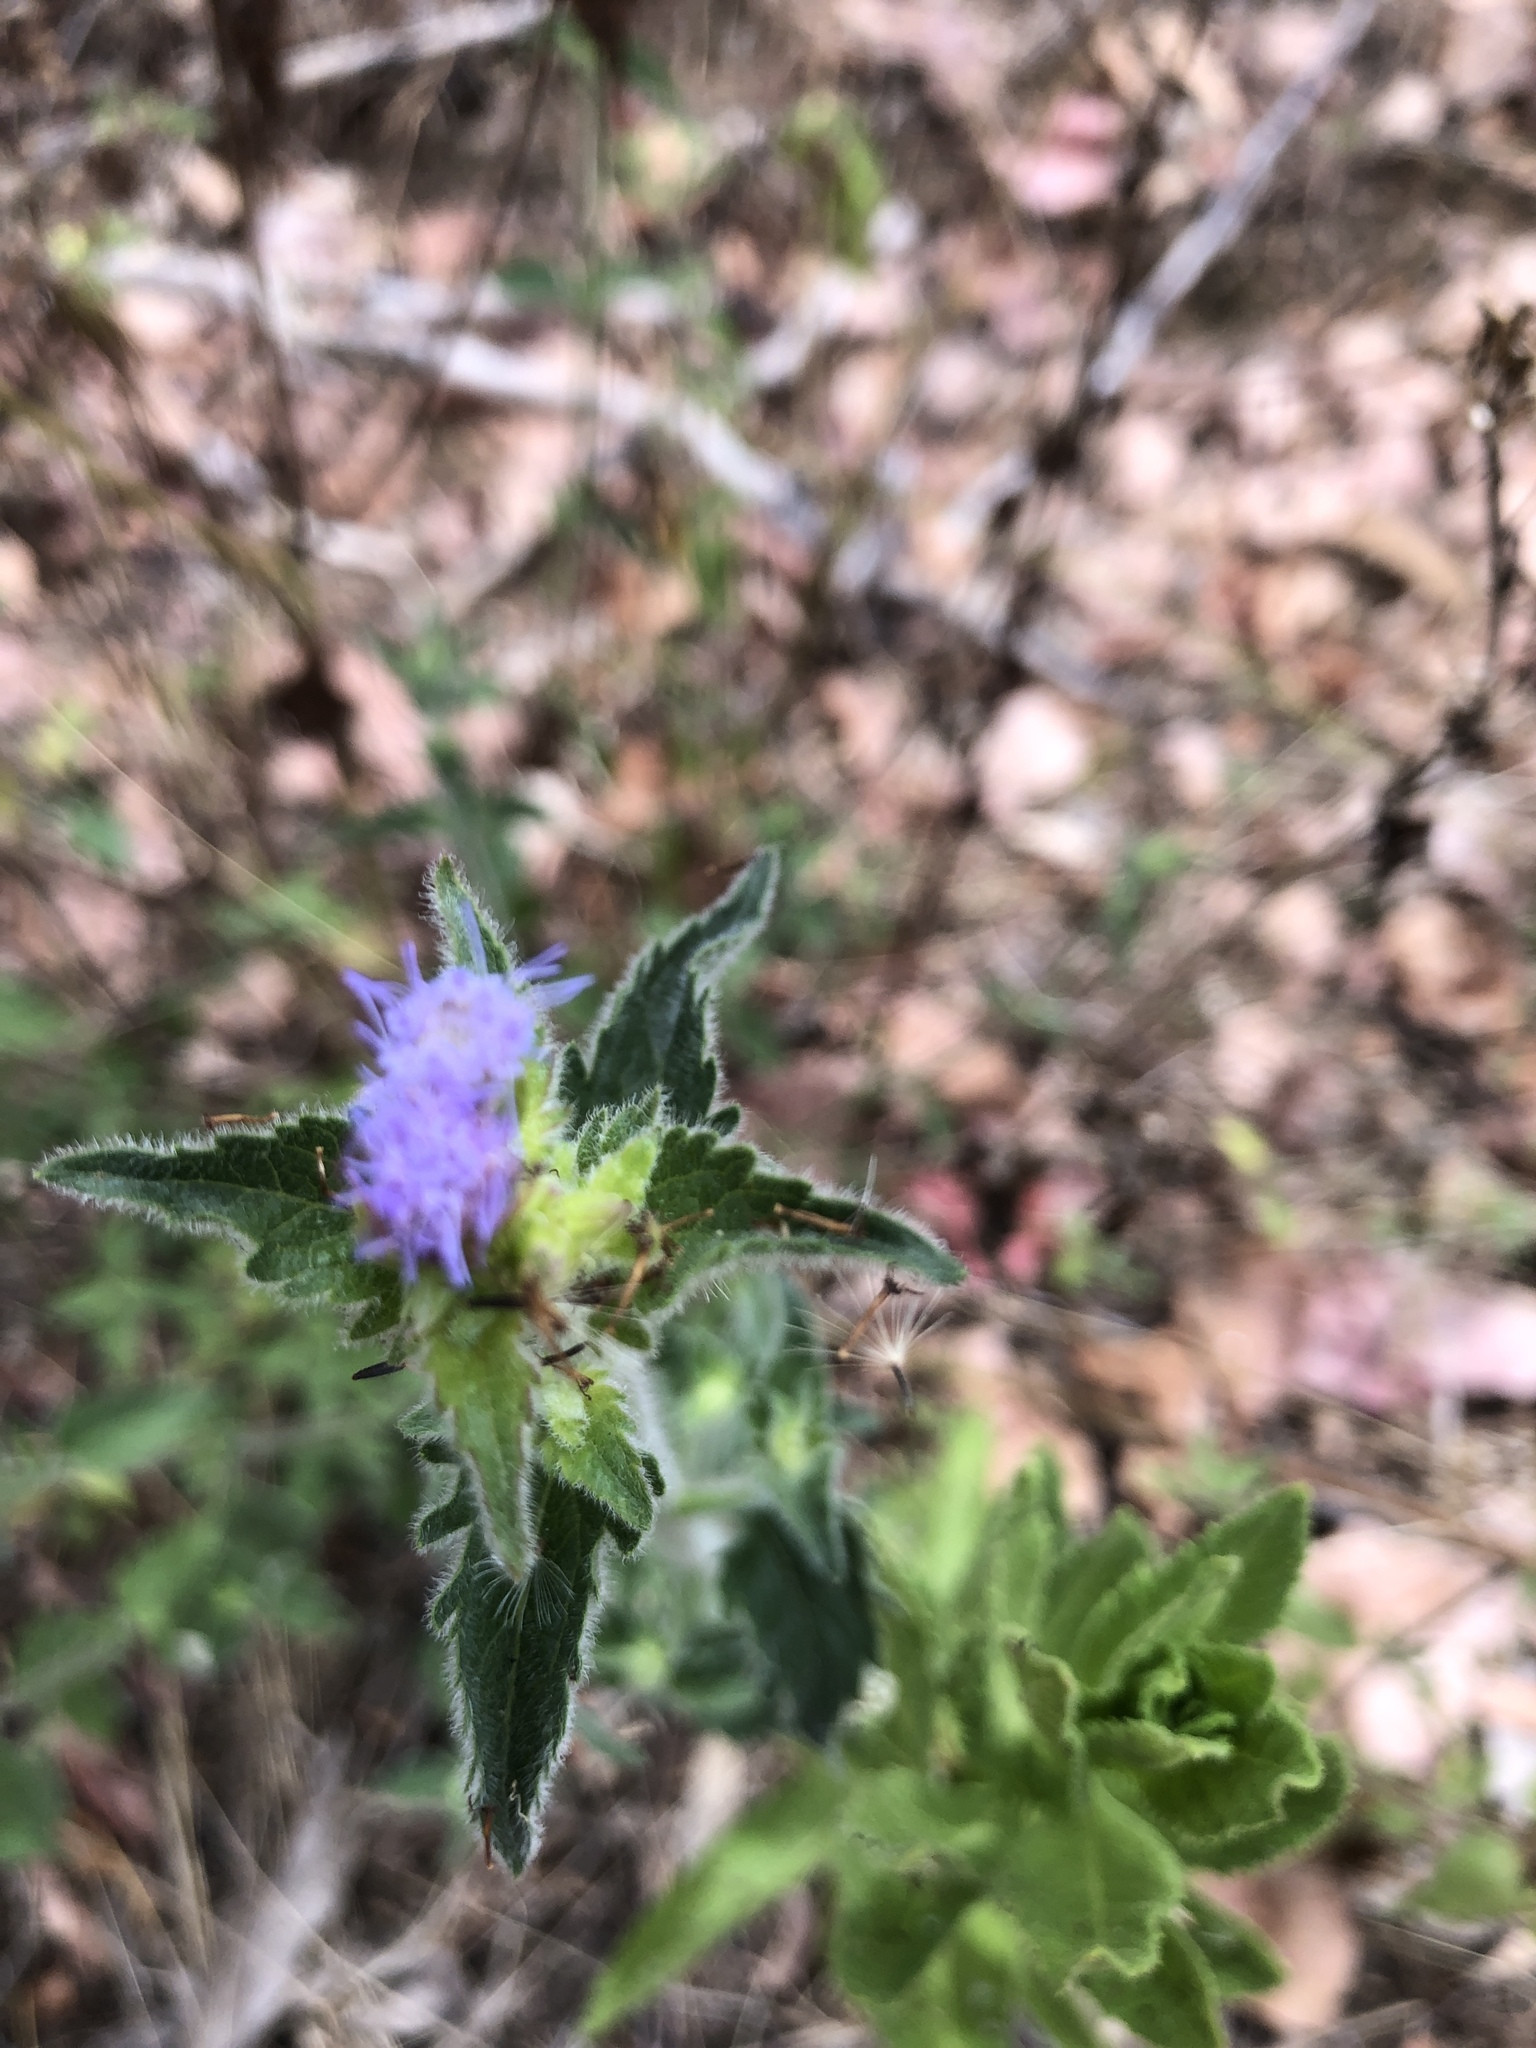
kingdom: Plantae
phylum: Tracheophyta
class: Magnoliopsida
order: Asterales
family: Asteraceae
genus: Praxelis
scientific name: Praxelis clematidea
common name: Praxelis
